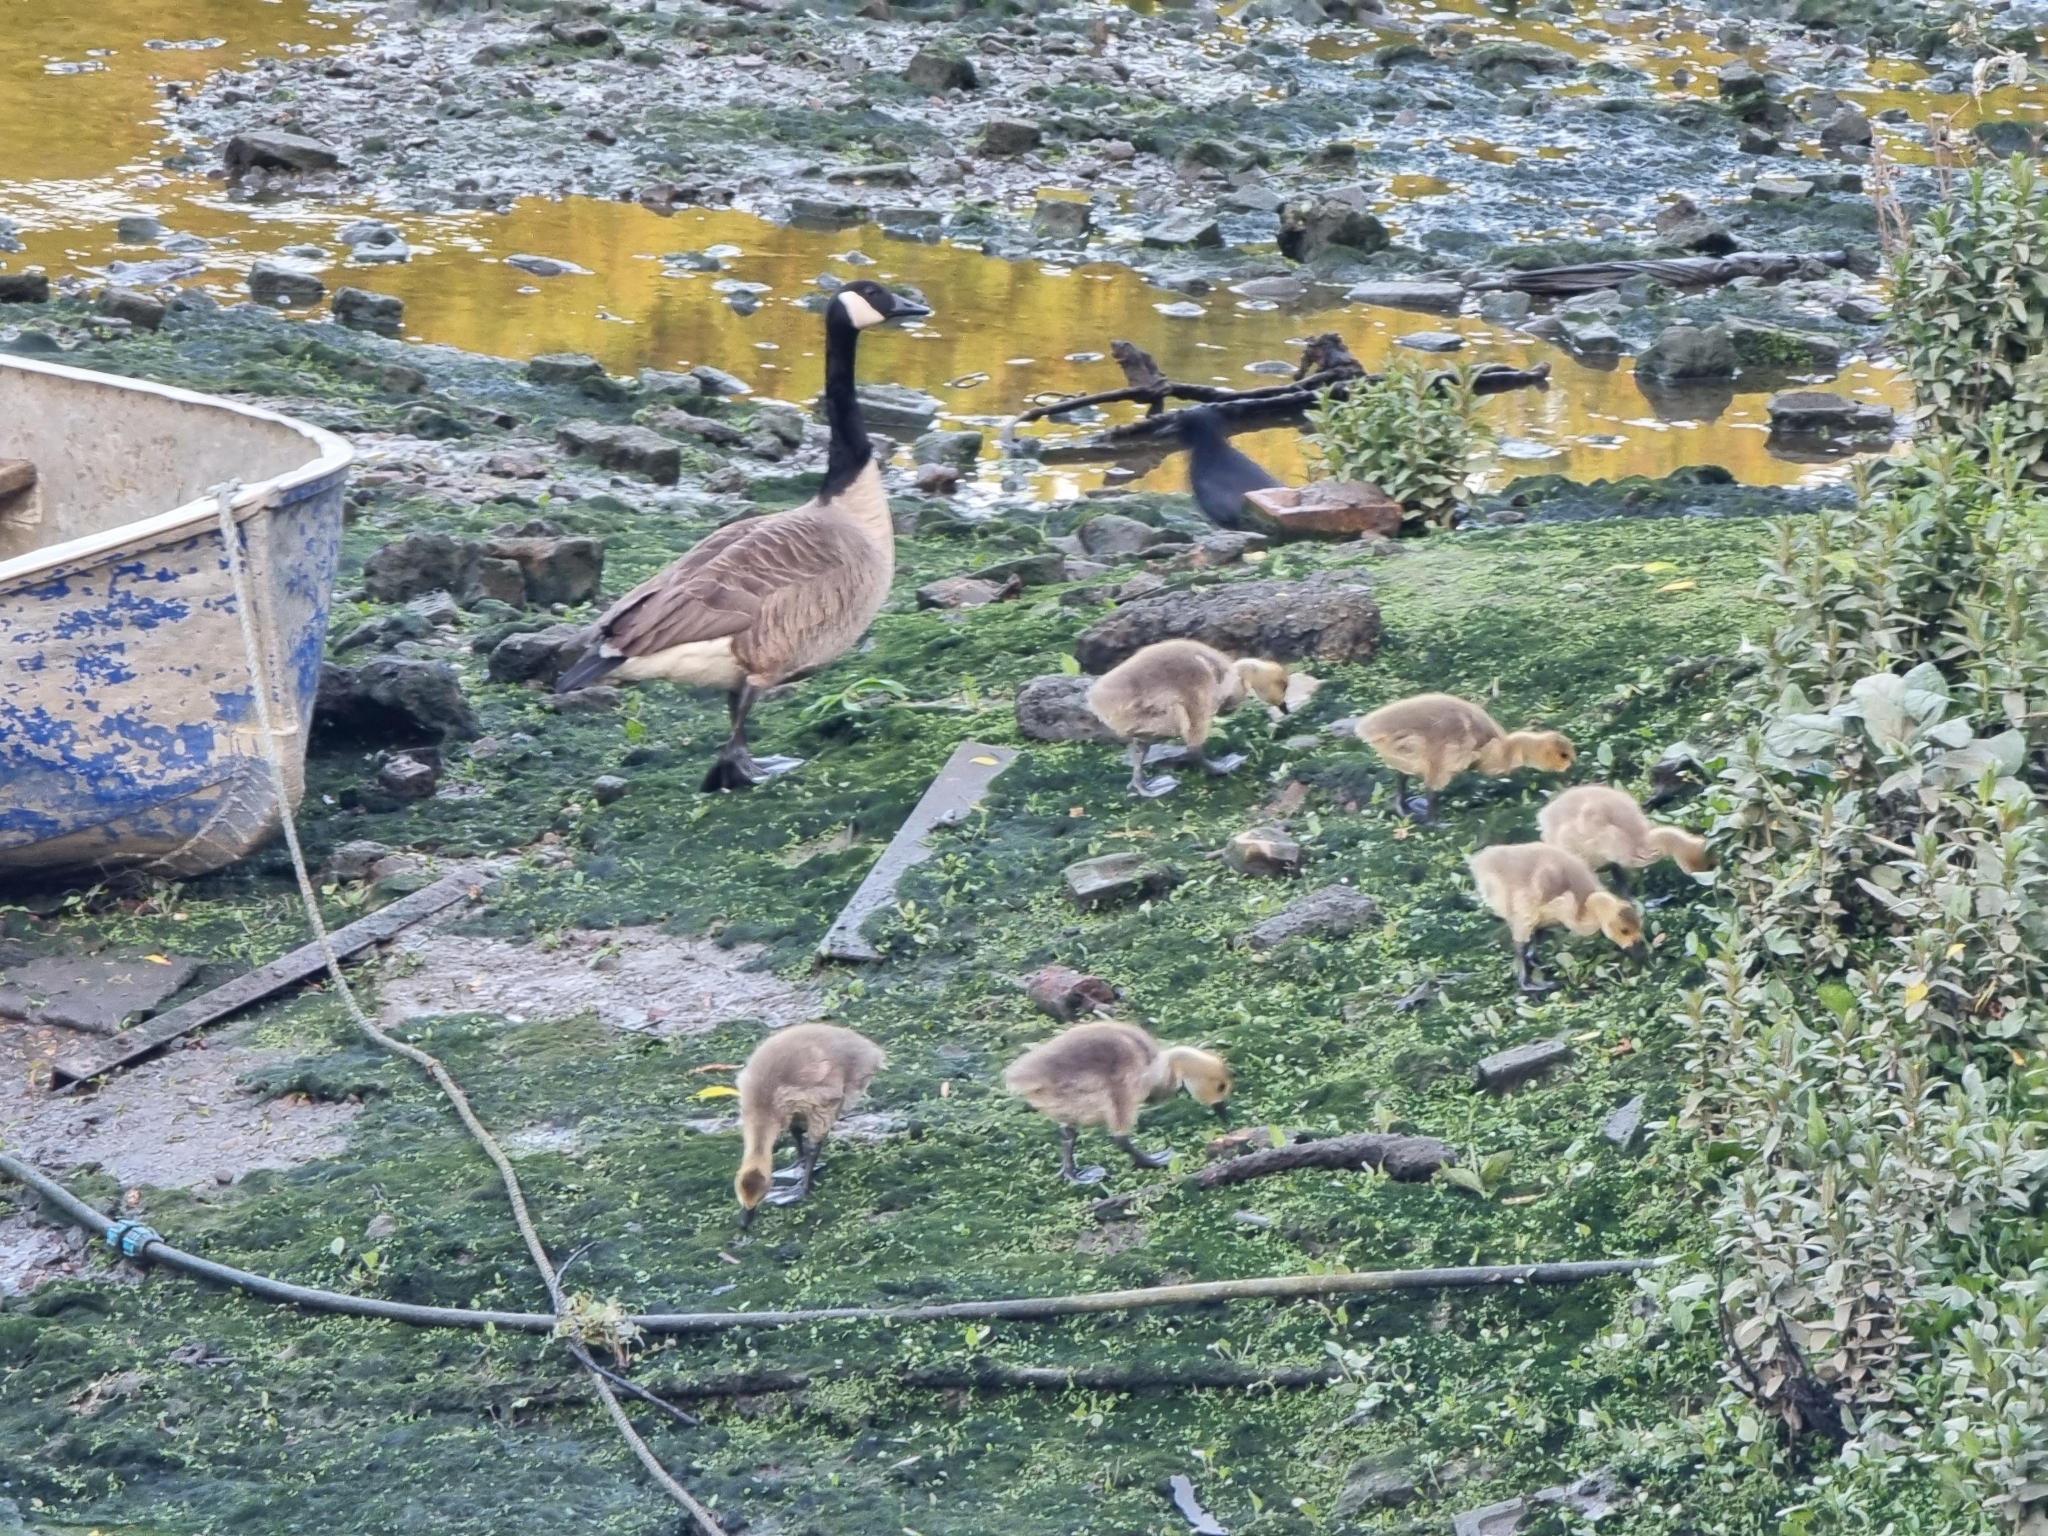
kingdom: Animalia
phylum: Chordata
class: Aves
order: Anseriformes
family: Anatidae
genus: Branta
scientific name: Branta canadensis
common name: Canada goose
